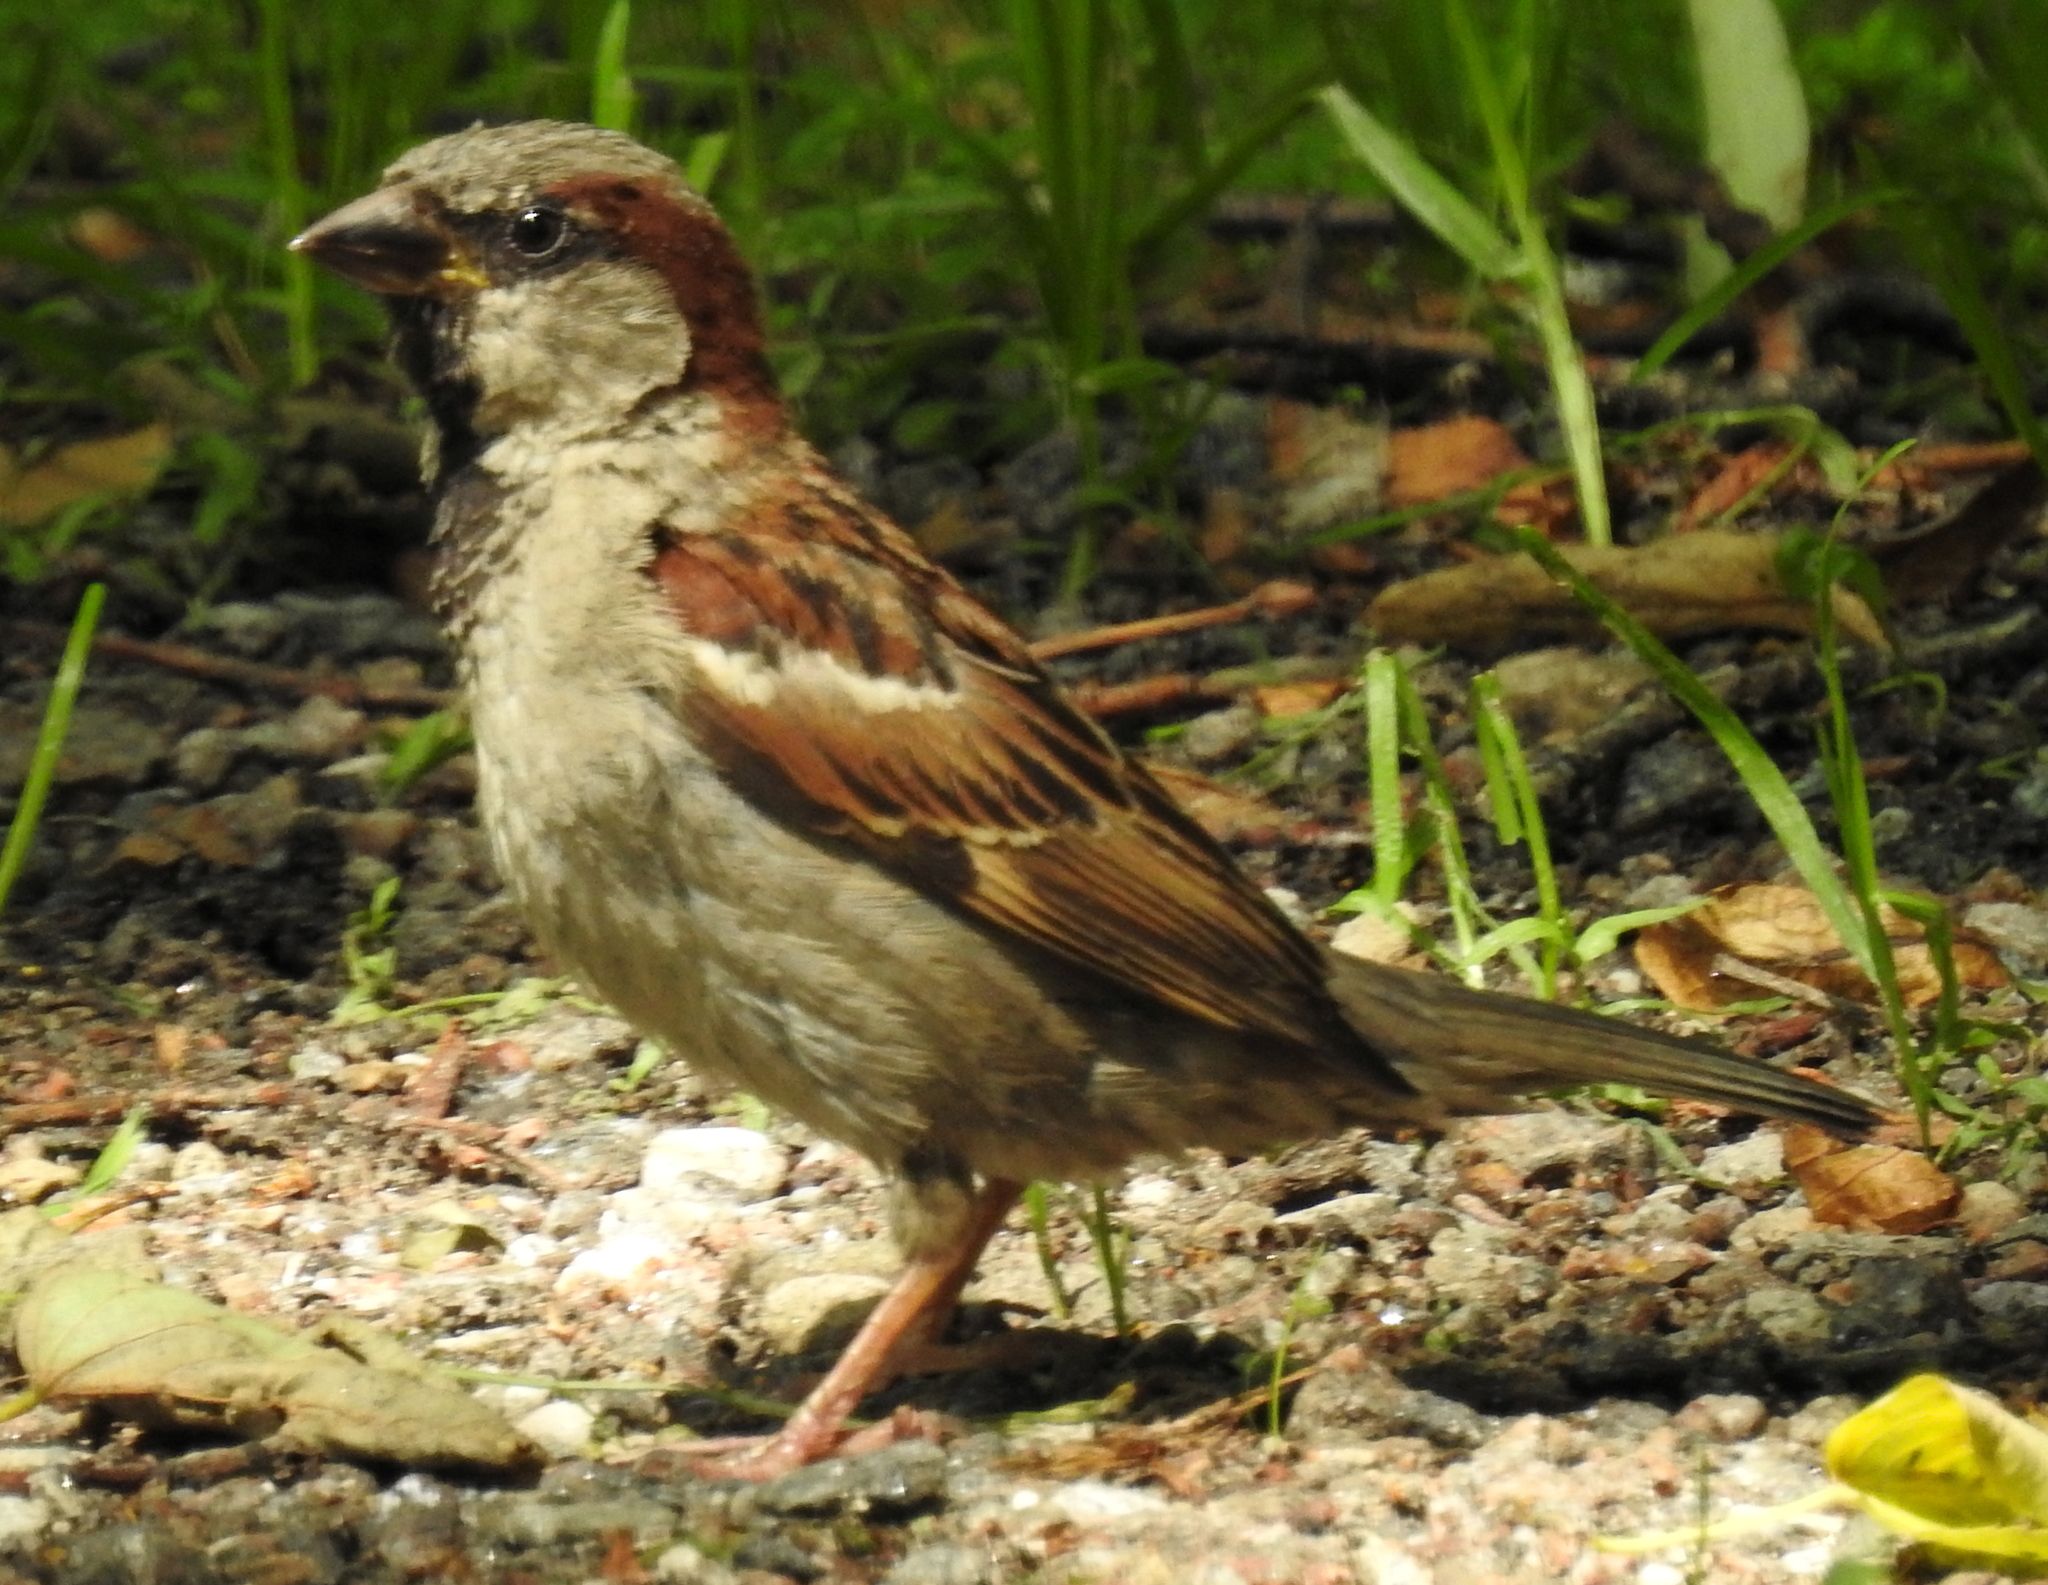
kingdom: Animalia
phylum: Chordata
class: Aves
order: Passeriformes
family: Passeridae
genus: Passer
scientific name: Passer domesticus
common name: House sparrow
